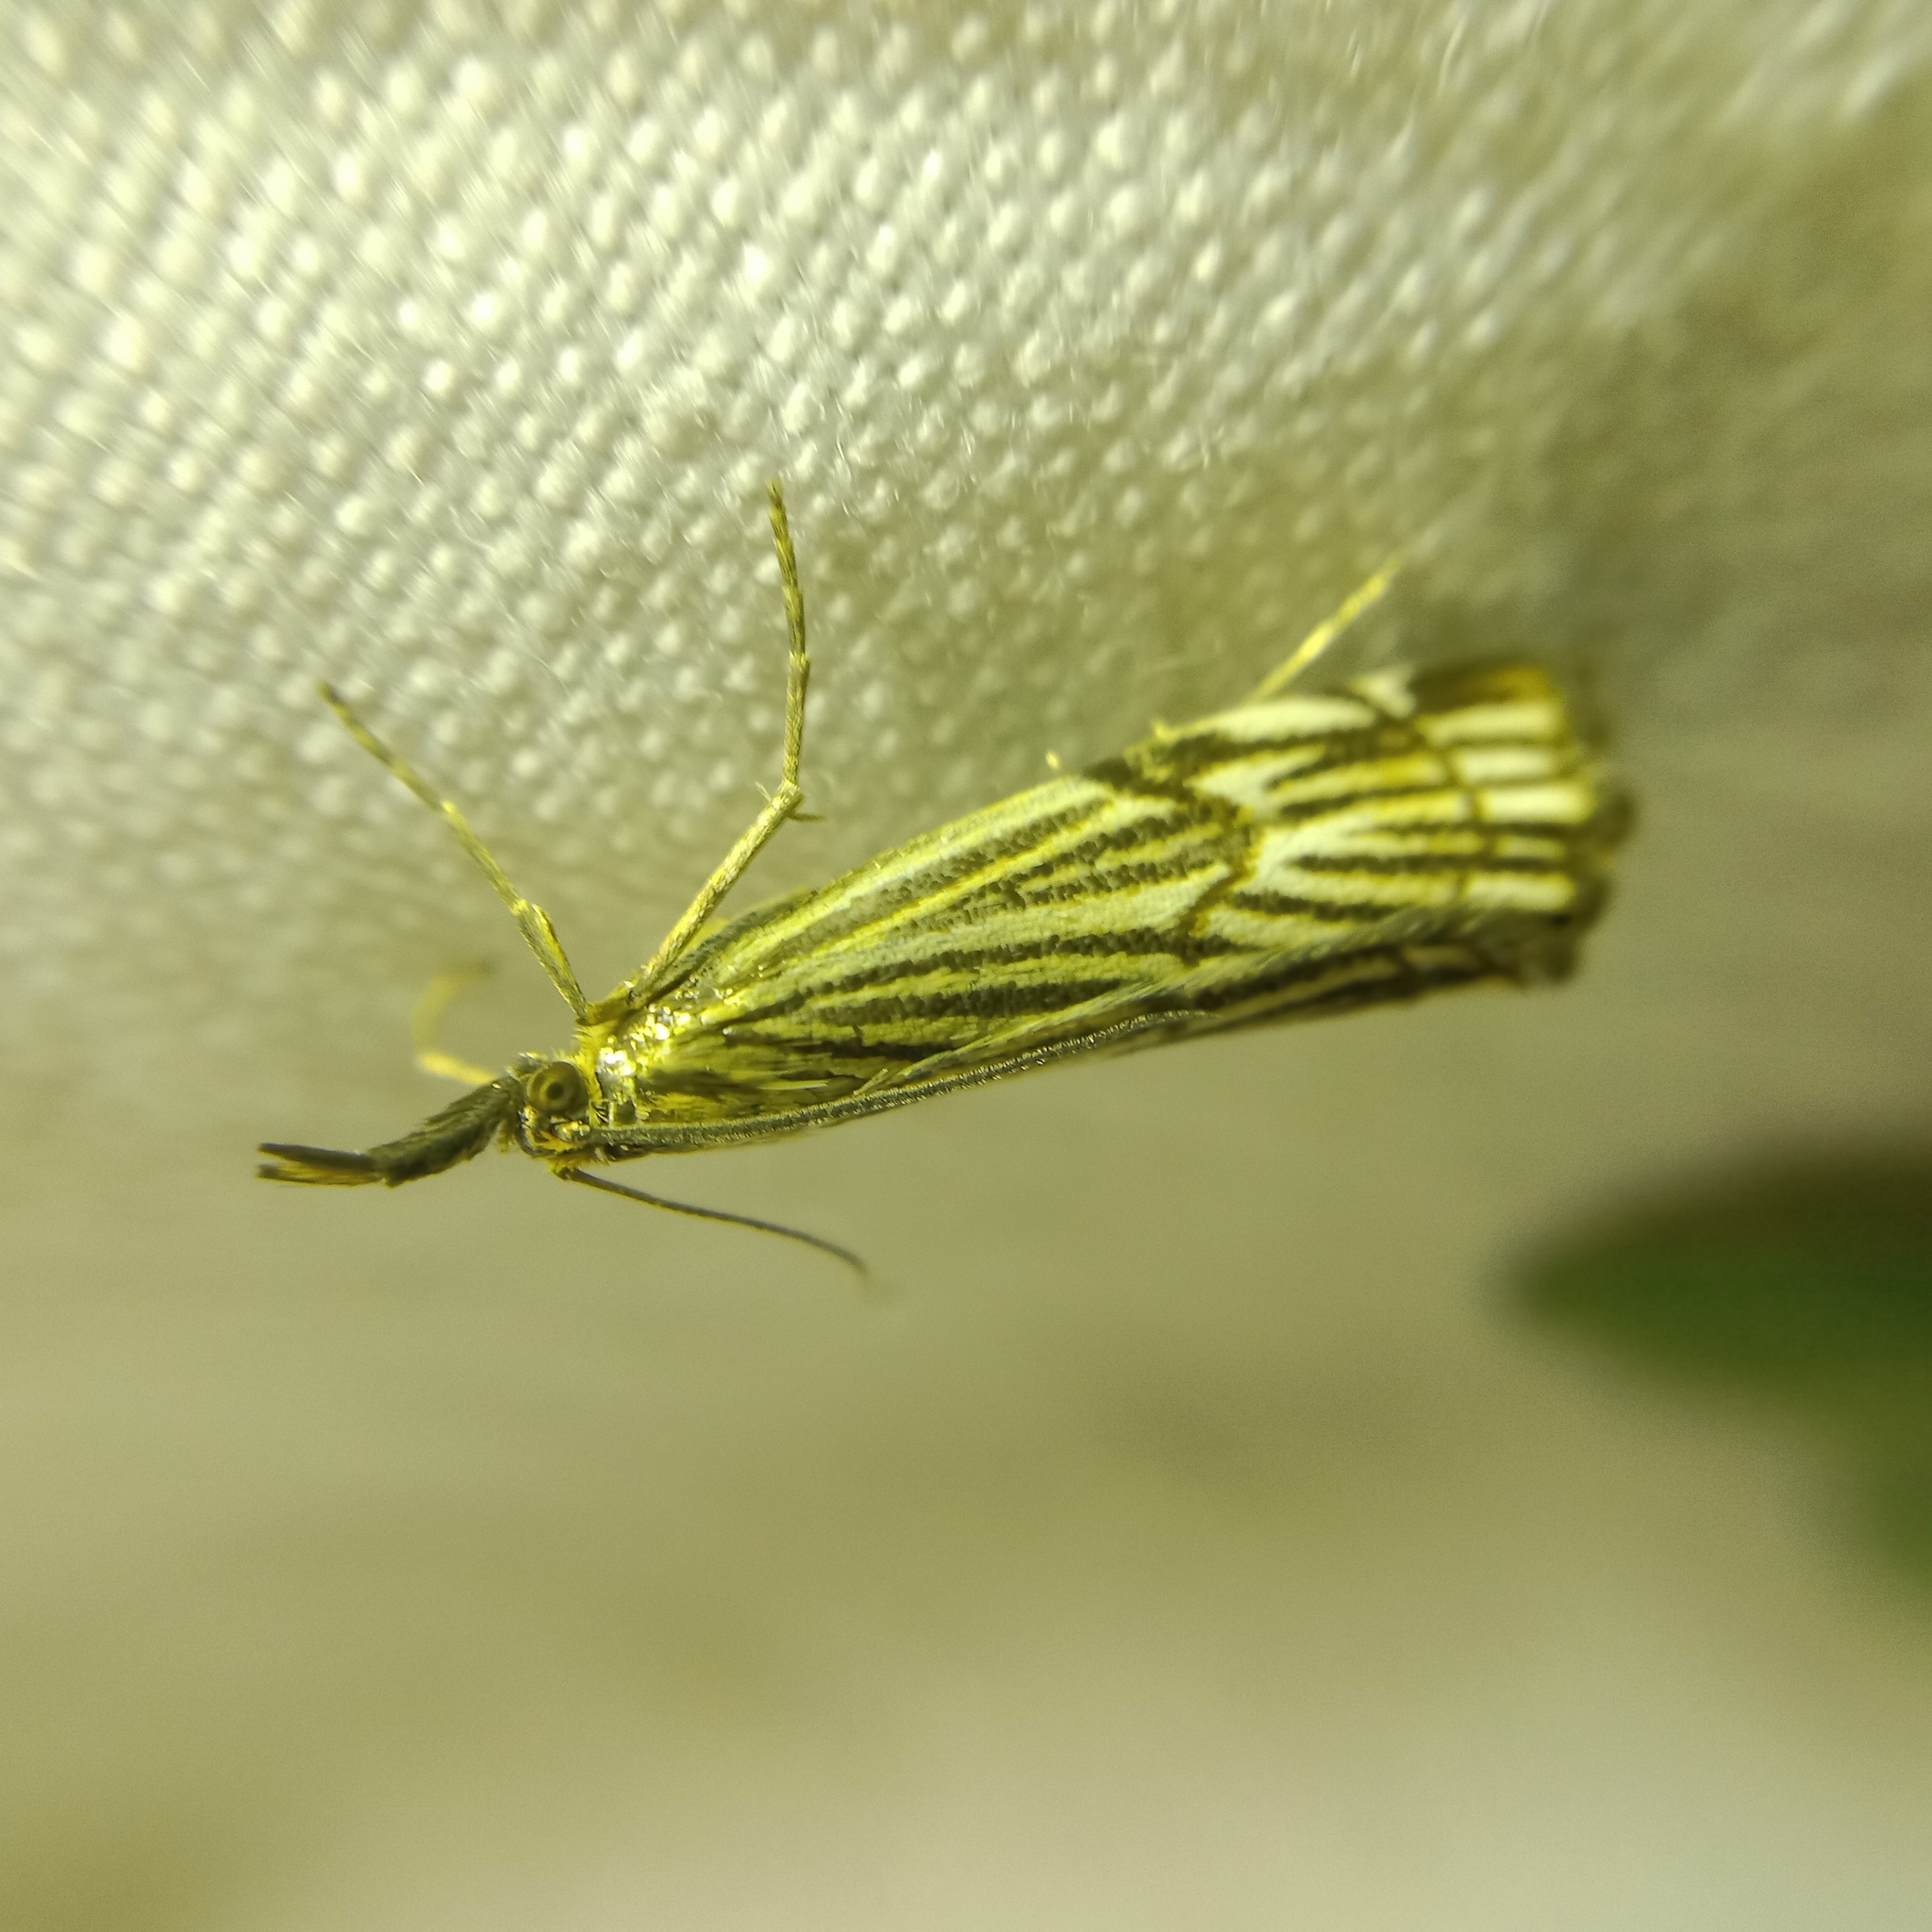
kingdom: Animalia
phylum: Arthropoda
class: Insecta
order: Lepidoptera
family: Crambidae
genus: Chrysocrambus
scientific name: Chrysocrambus linetella
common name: Orange-bar grass-veneer
